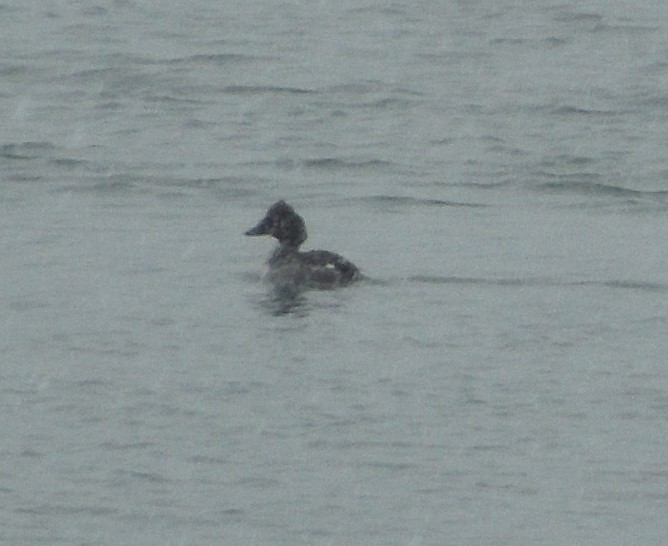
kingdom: Animalia
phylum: Chordata
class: Aves
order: Anseriformes
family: Anatidae
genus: Bucephala
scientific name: Bucephala clangula
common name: Common goldeneye
